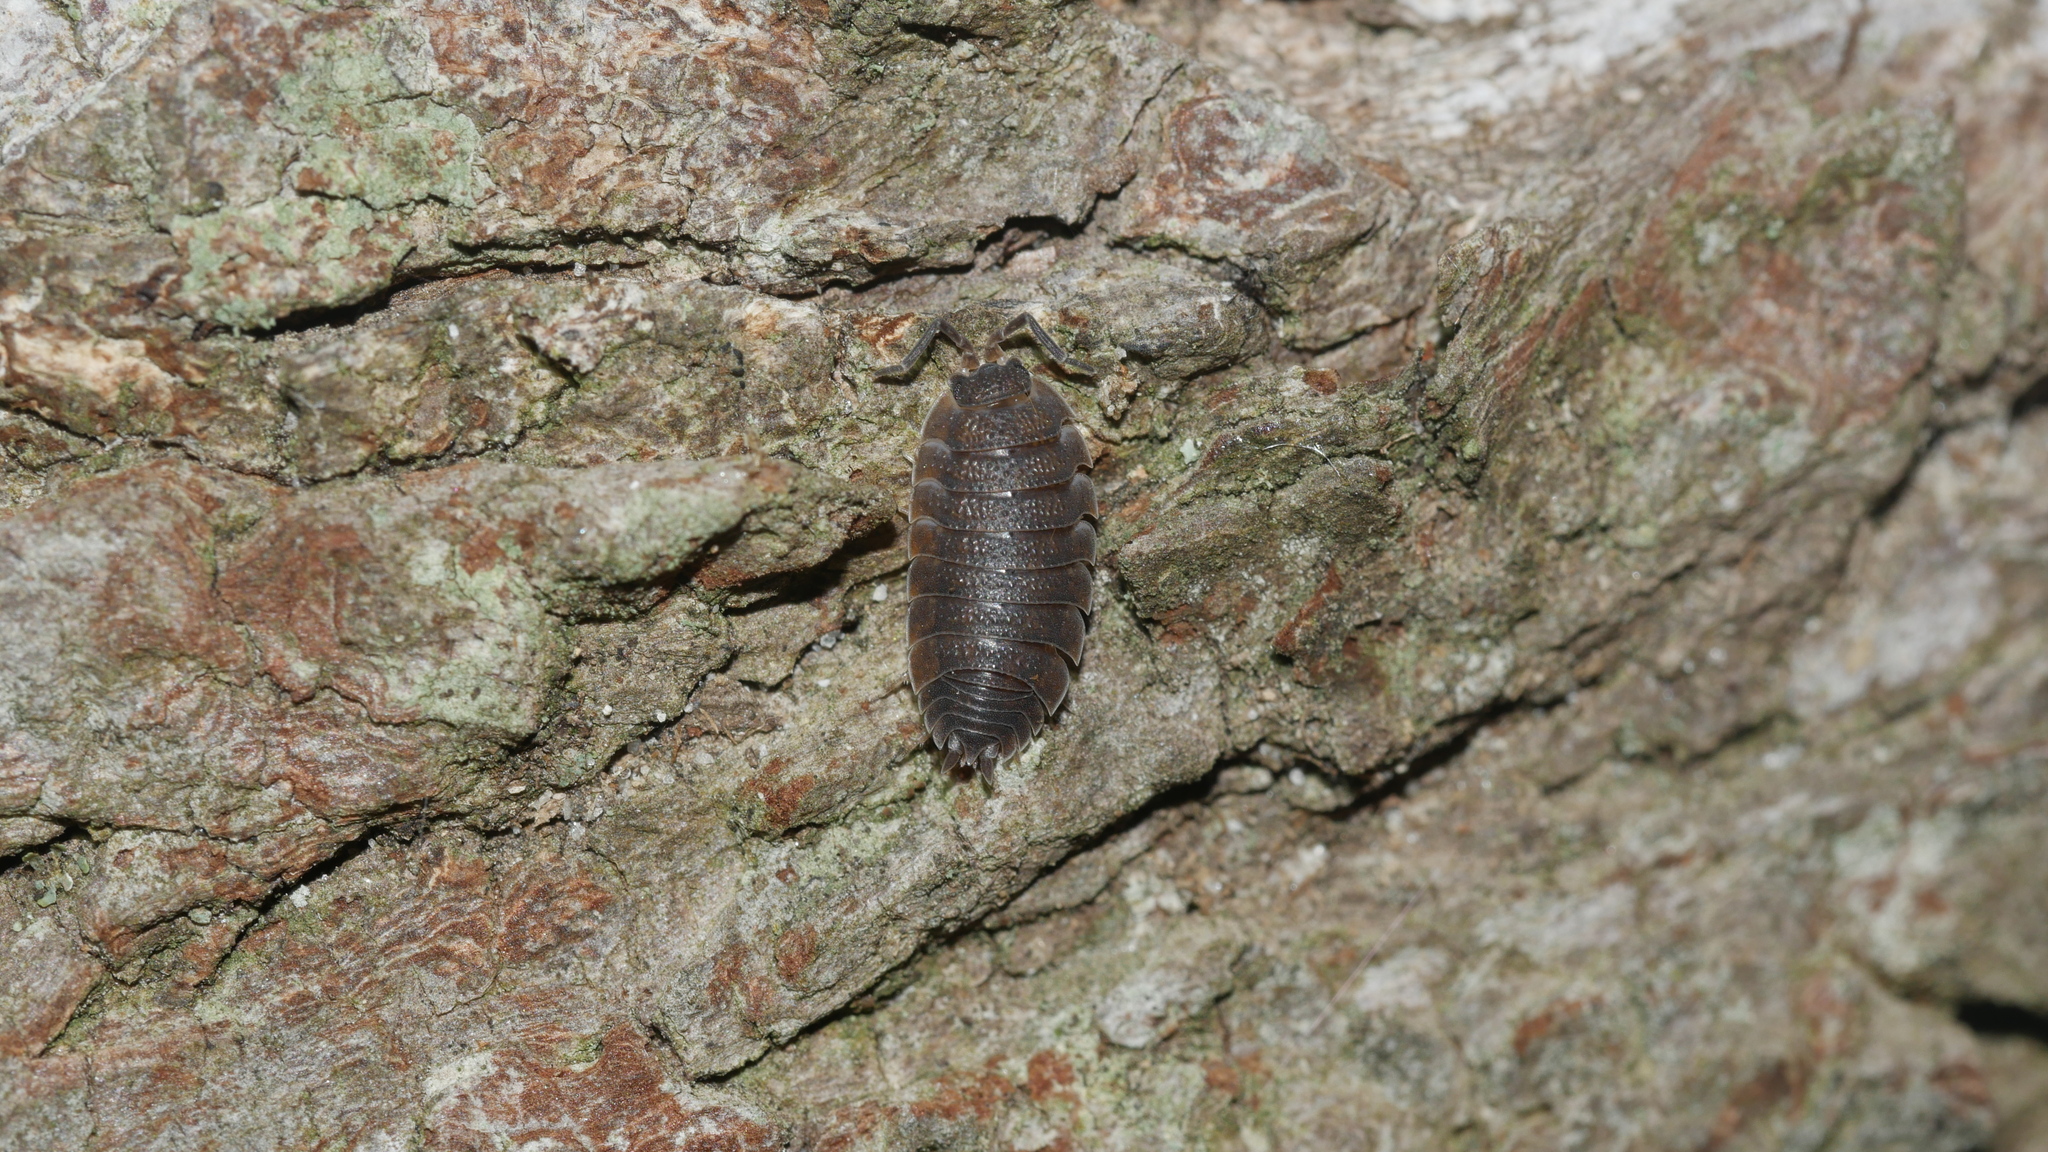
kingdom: Animalia
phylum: Arthropoda
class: Malacostraca
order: Isopoda
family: Porcellionidae
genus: Porcellio
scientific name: Porcellio scaber
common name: Common rough woodlouse
